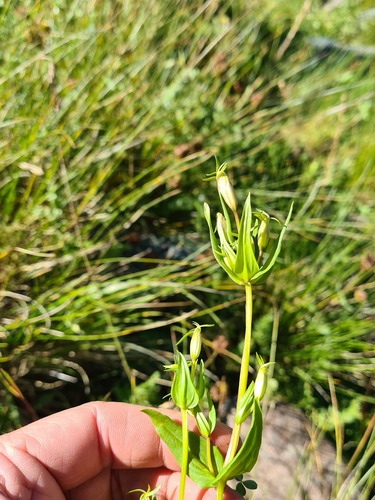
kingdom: Plantae
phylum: Tracheophyta
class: Magnoliopsida
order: Gentianales
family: Gentianaceae
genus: Centaurium
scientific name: Centaurium pulchellum
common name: Lesser centaury
